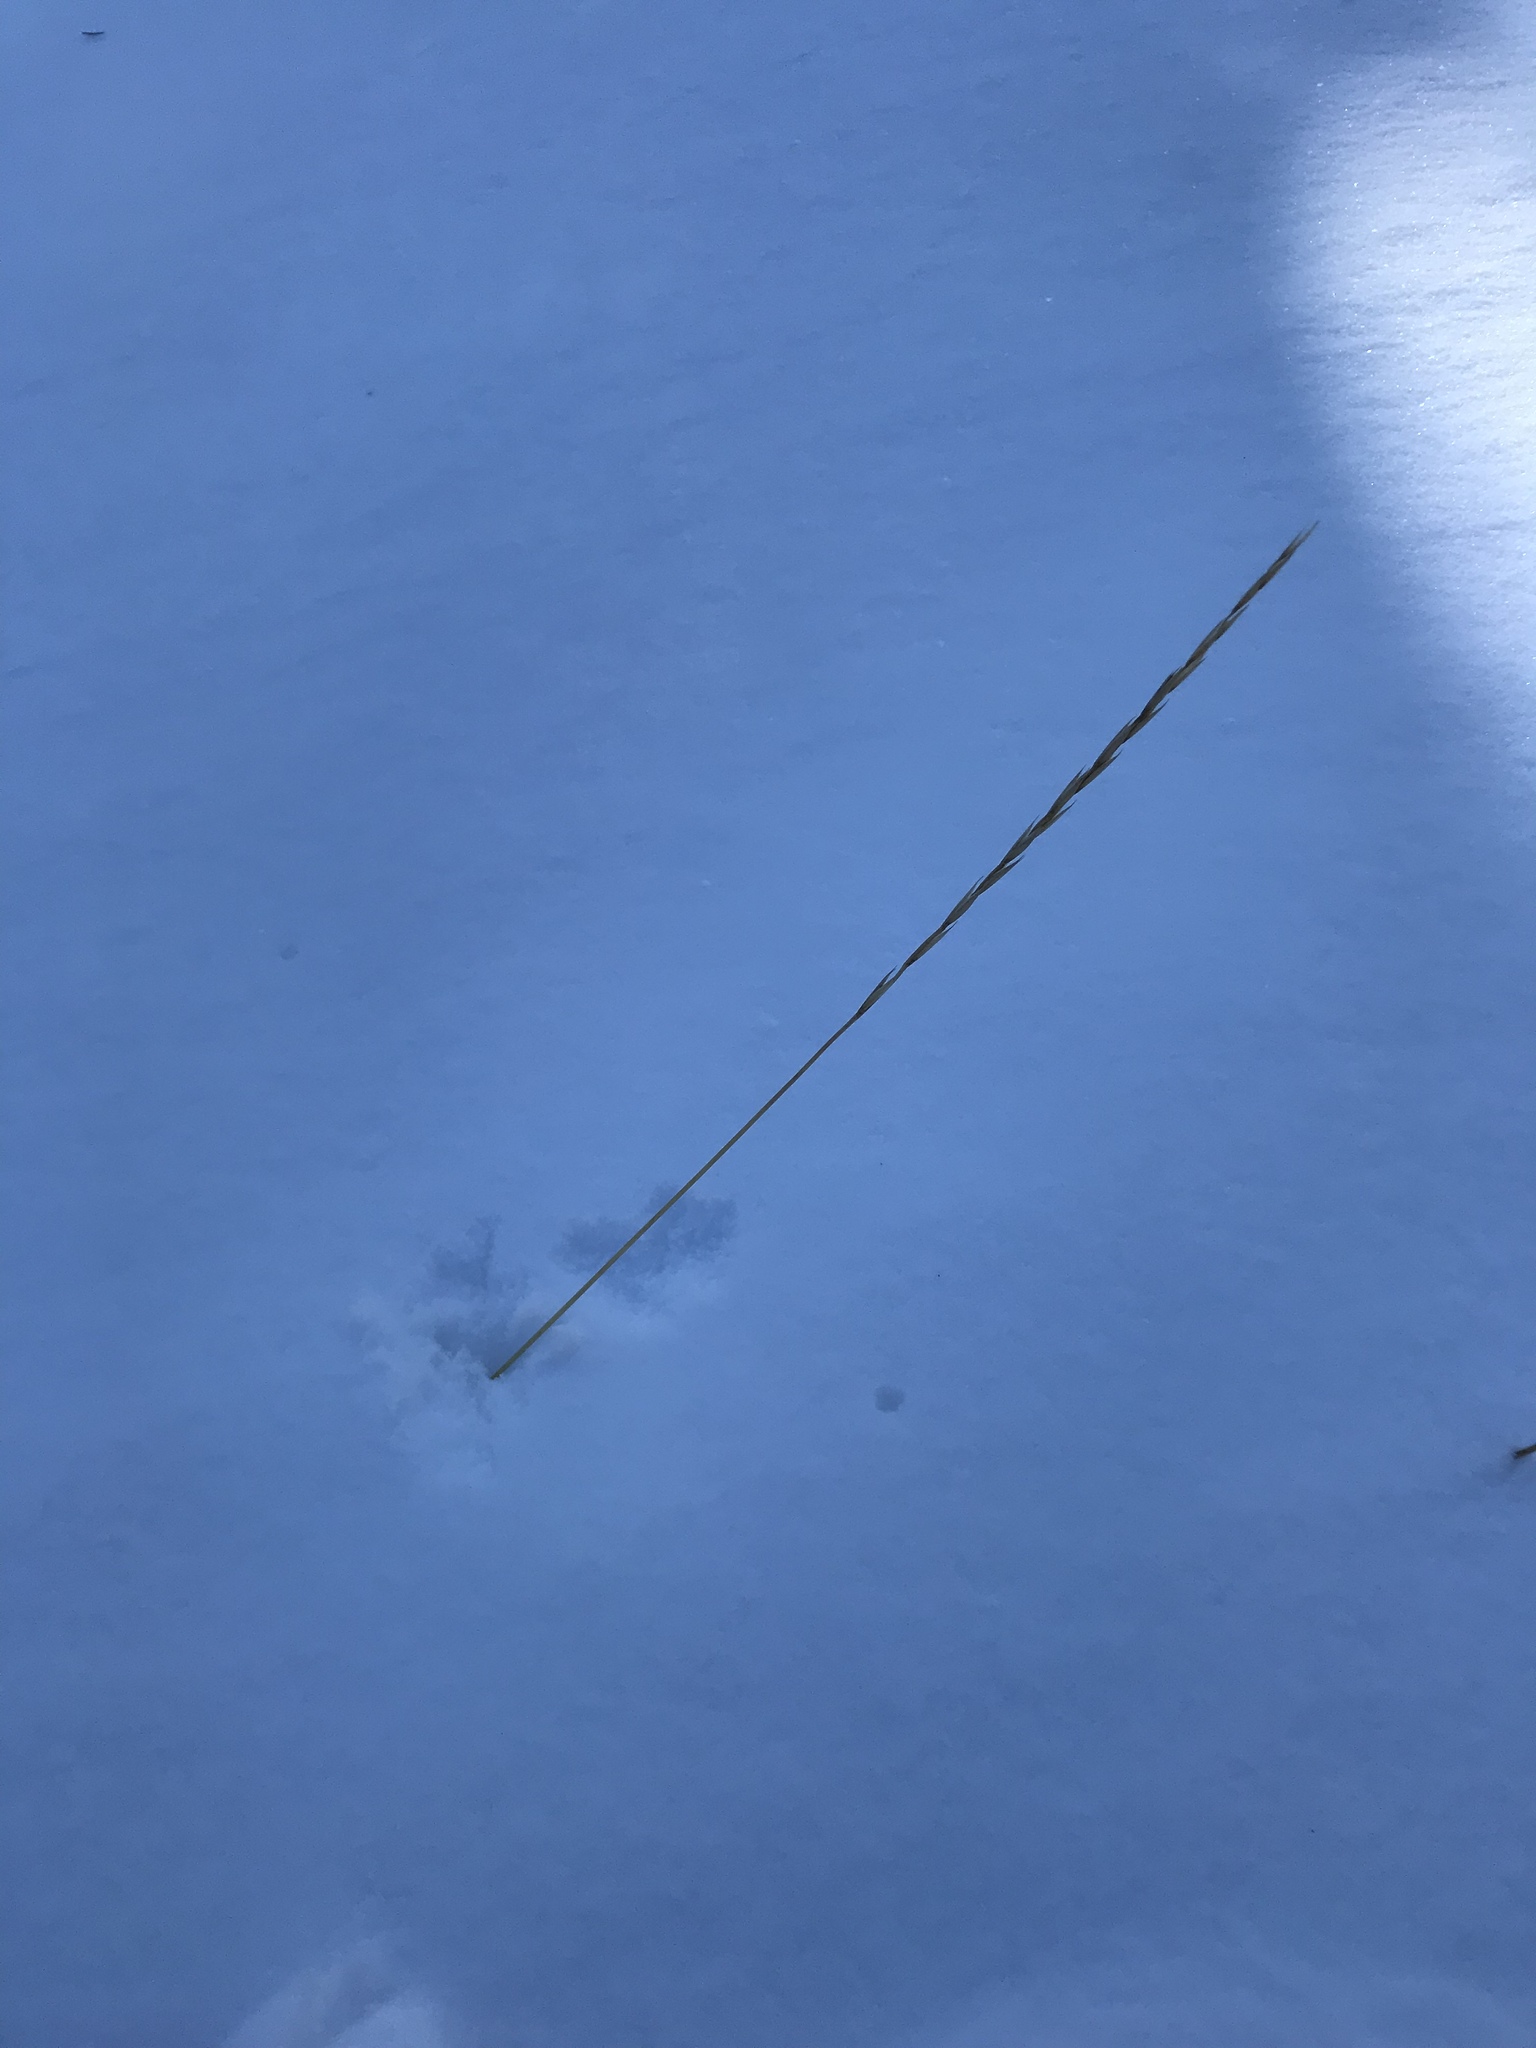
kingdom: Plantae
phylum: Tracheophyta
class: Liliopsida
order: Poales
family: Poaceae
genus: Elymus
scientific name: Elymus violaceus
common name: Arctic wheatgrass
